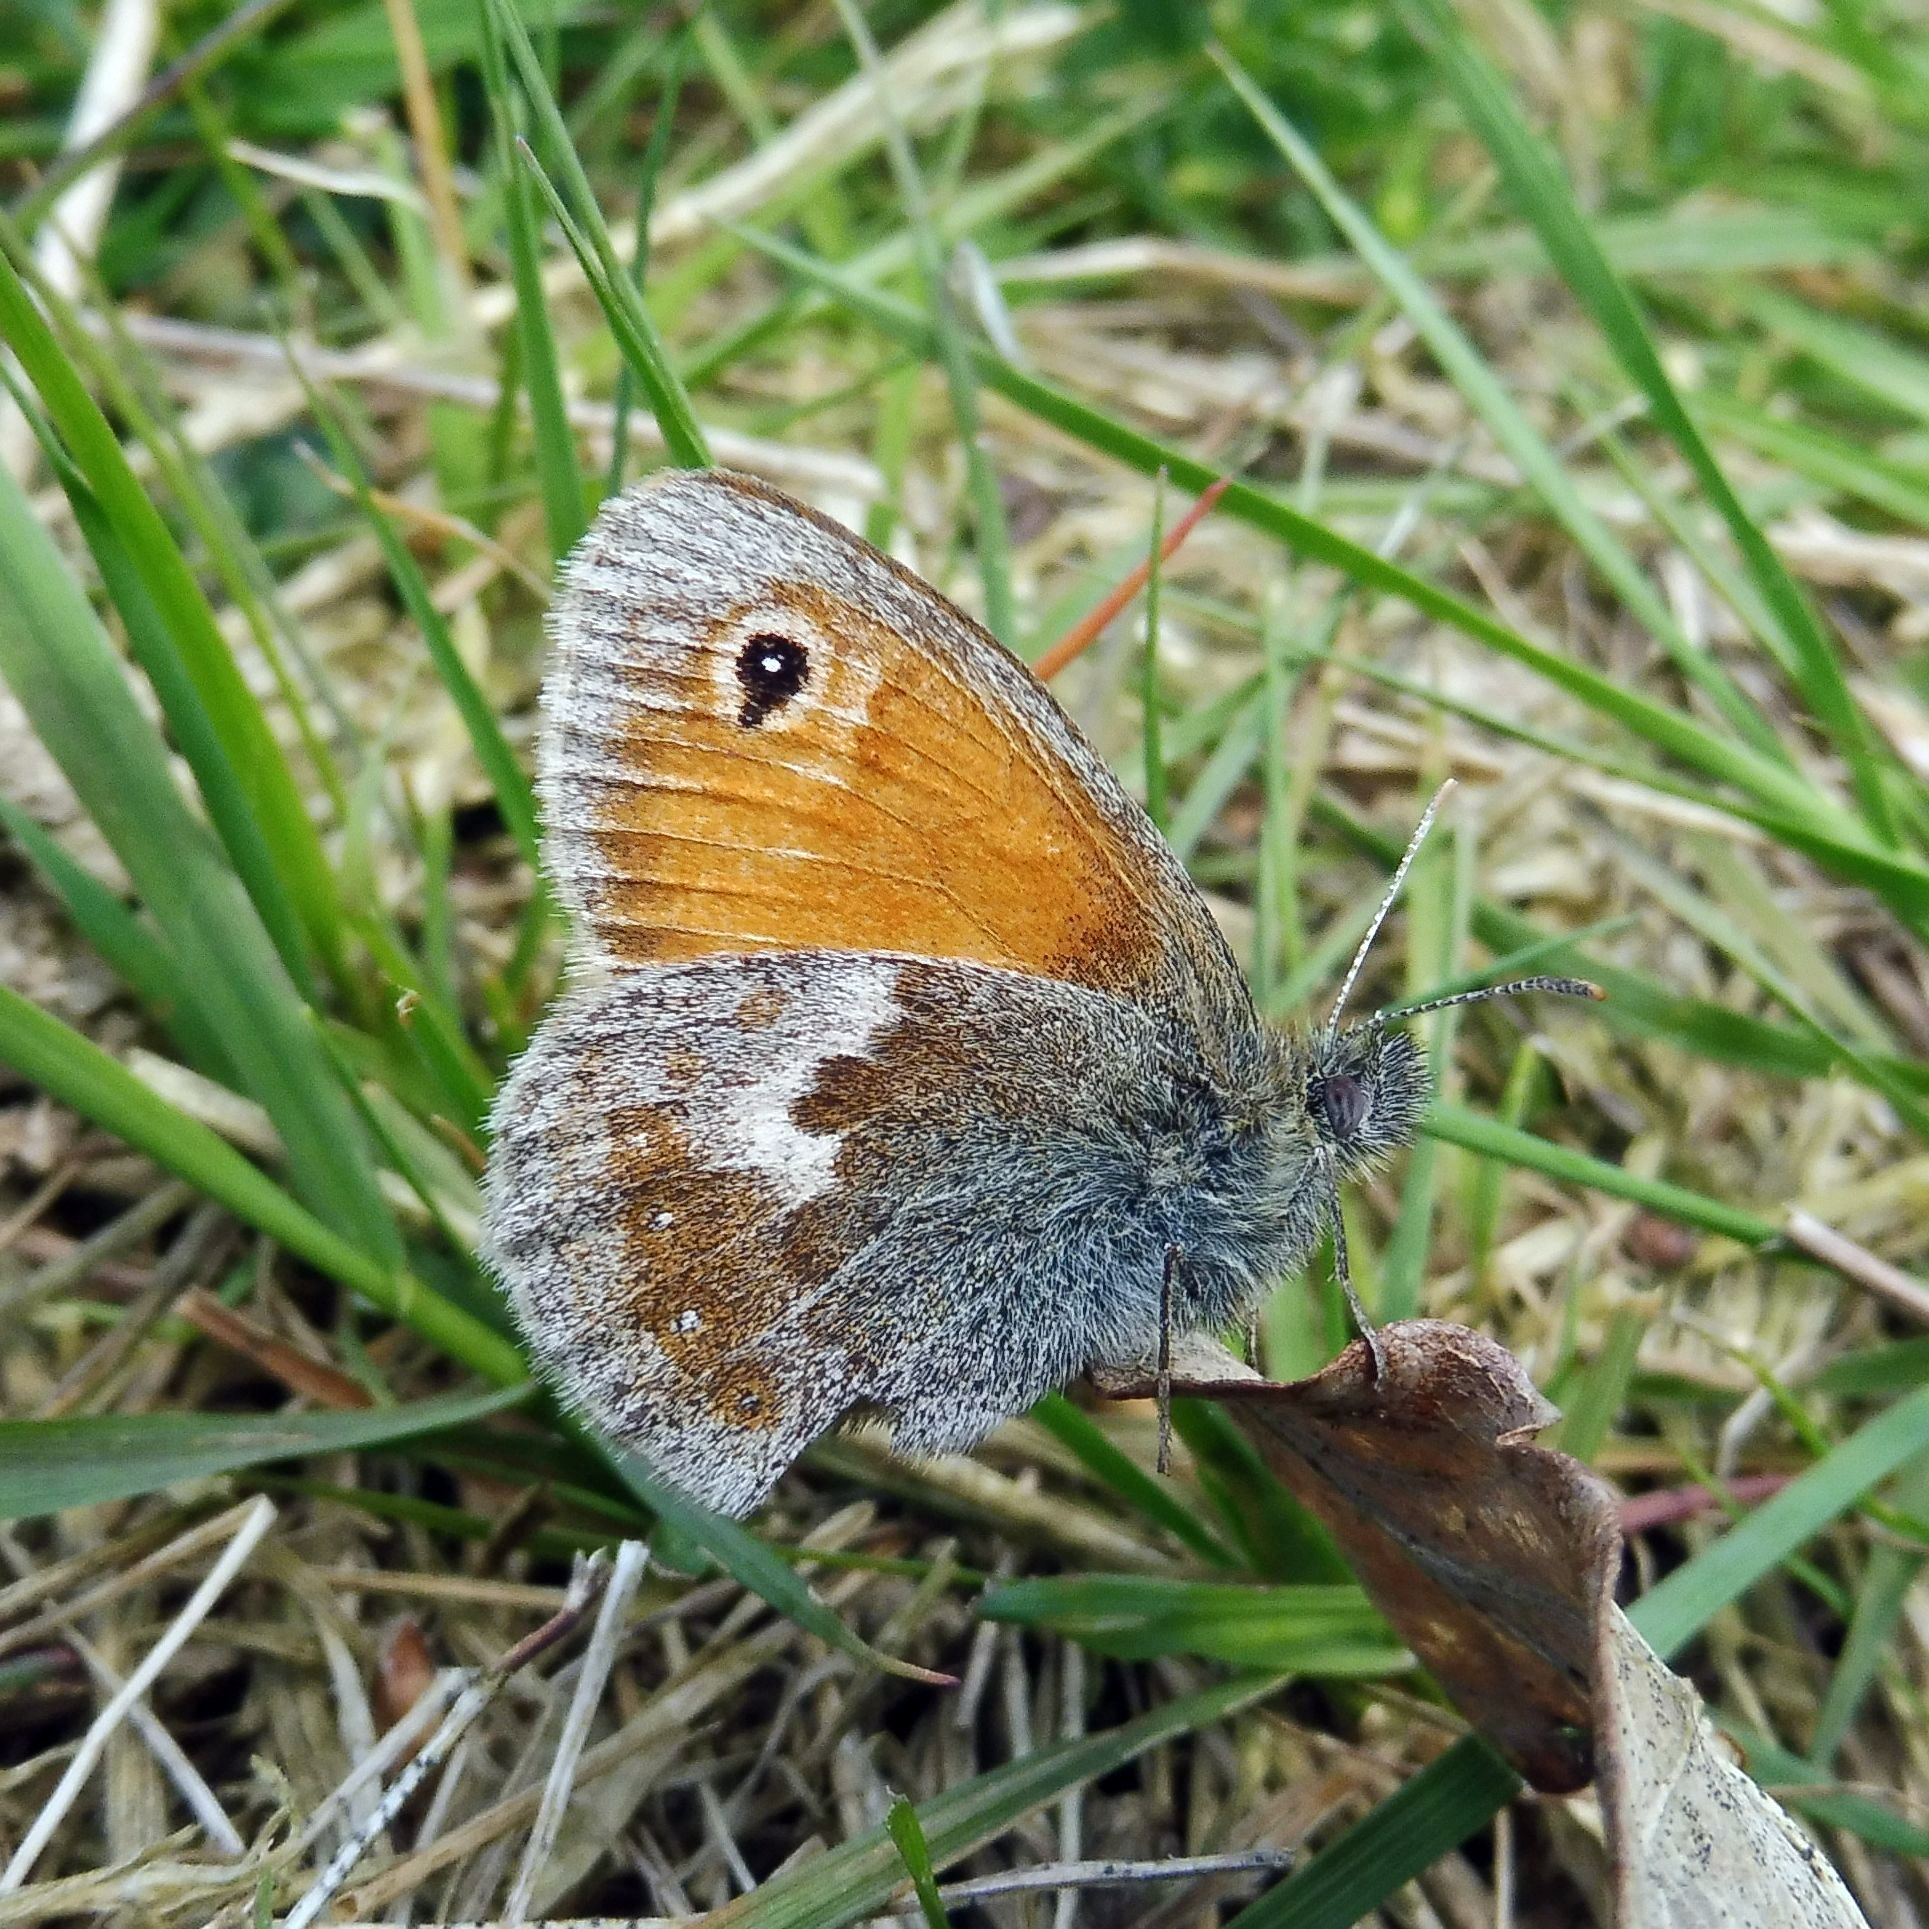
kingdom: Animalia
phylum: Arthropoda
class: Insecta
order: Lepidoptera
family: Nymphalidae
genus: Coenonympha
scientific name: Coenonympha pamphilus
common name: Small heath
